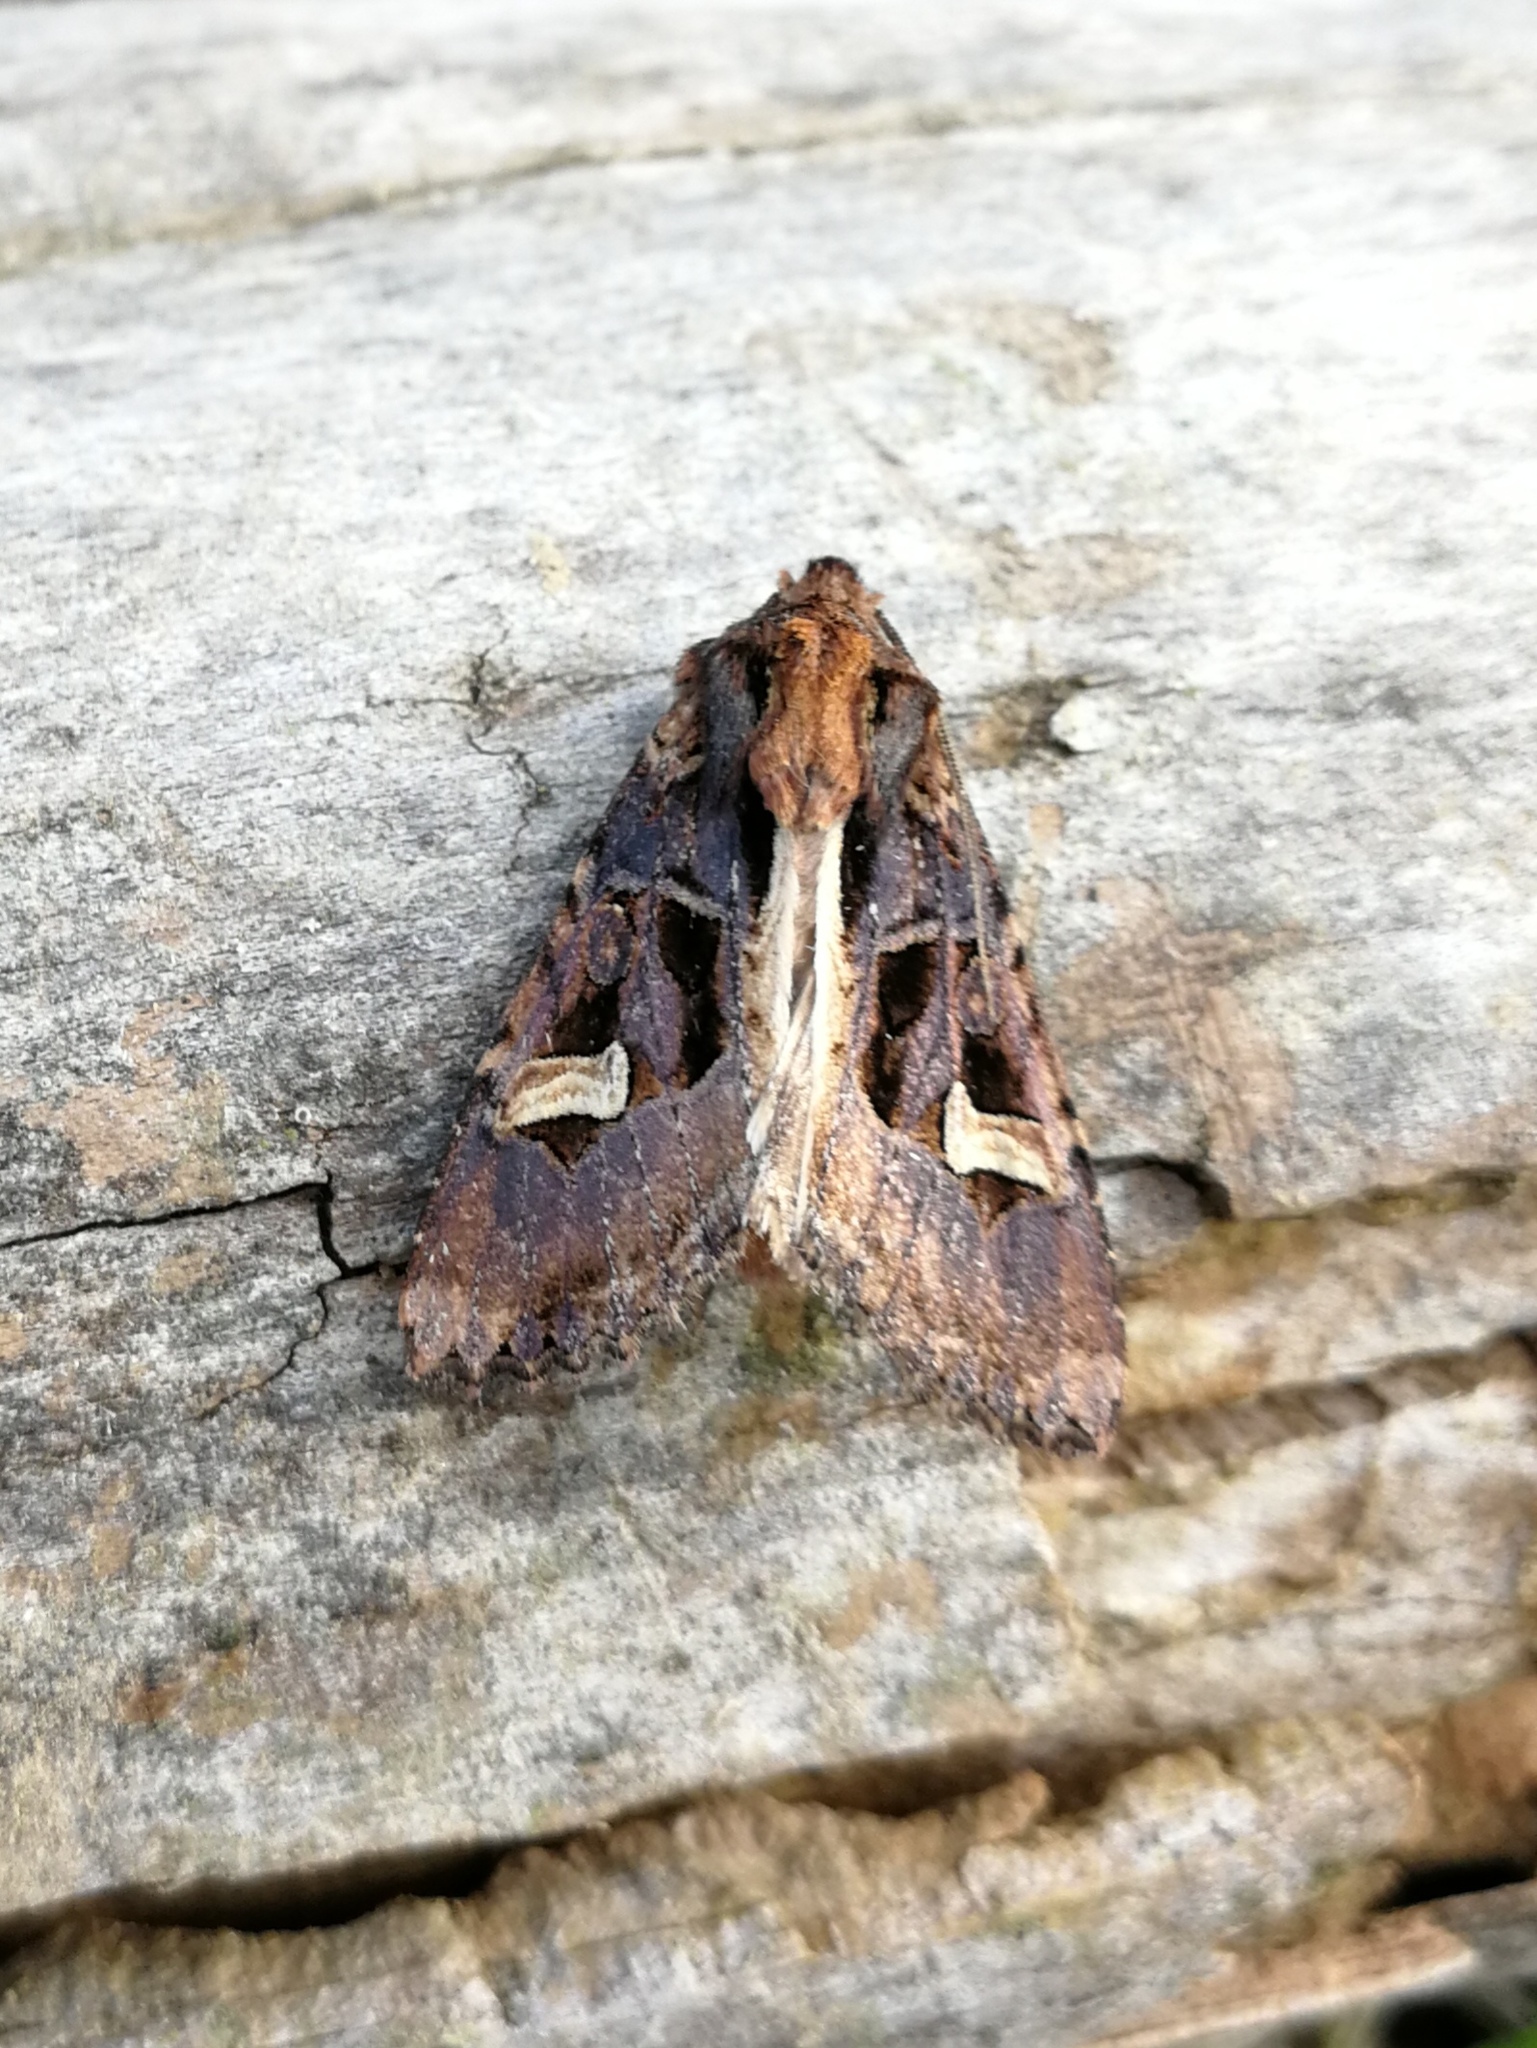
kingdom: Animalia
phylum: Arthropoda
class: Insecta
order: Lepidoptera
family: Noctuidae
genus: Trigonophora
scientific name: Trigonophora flammea
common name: Flame brocade
